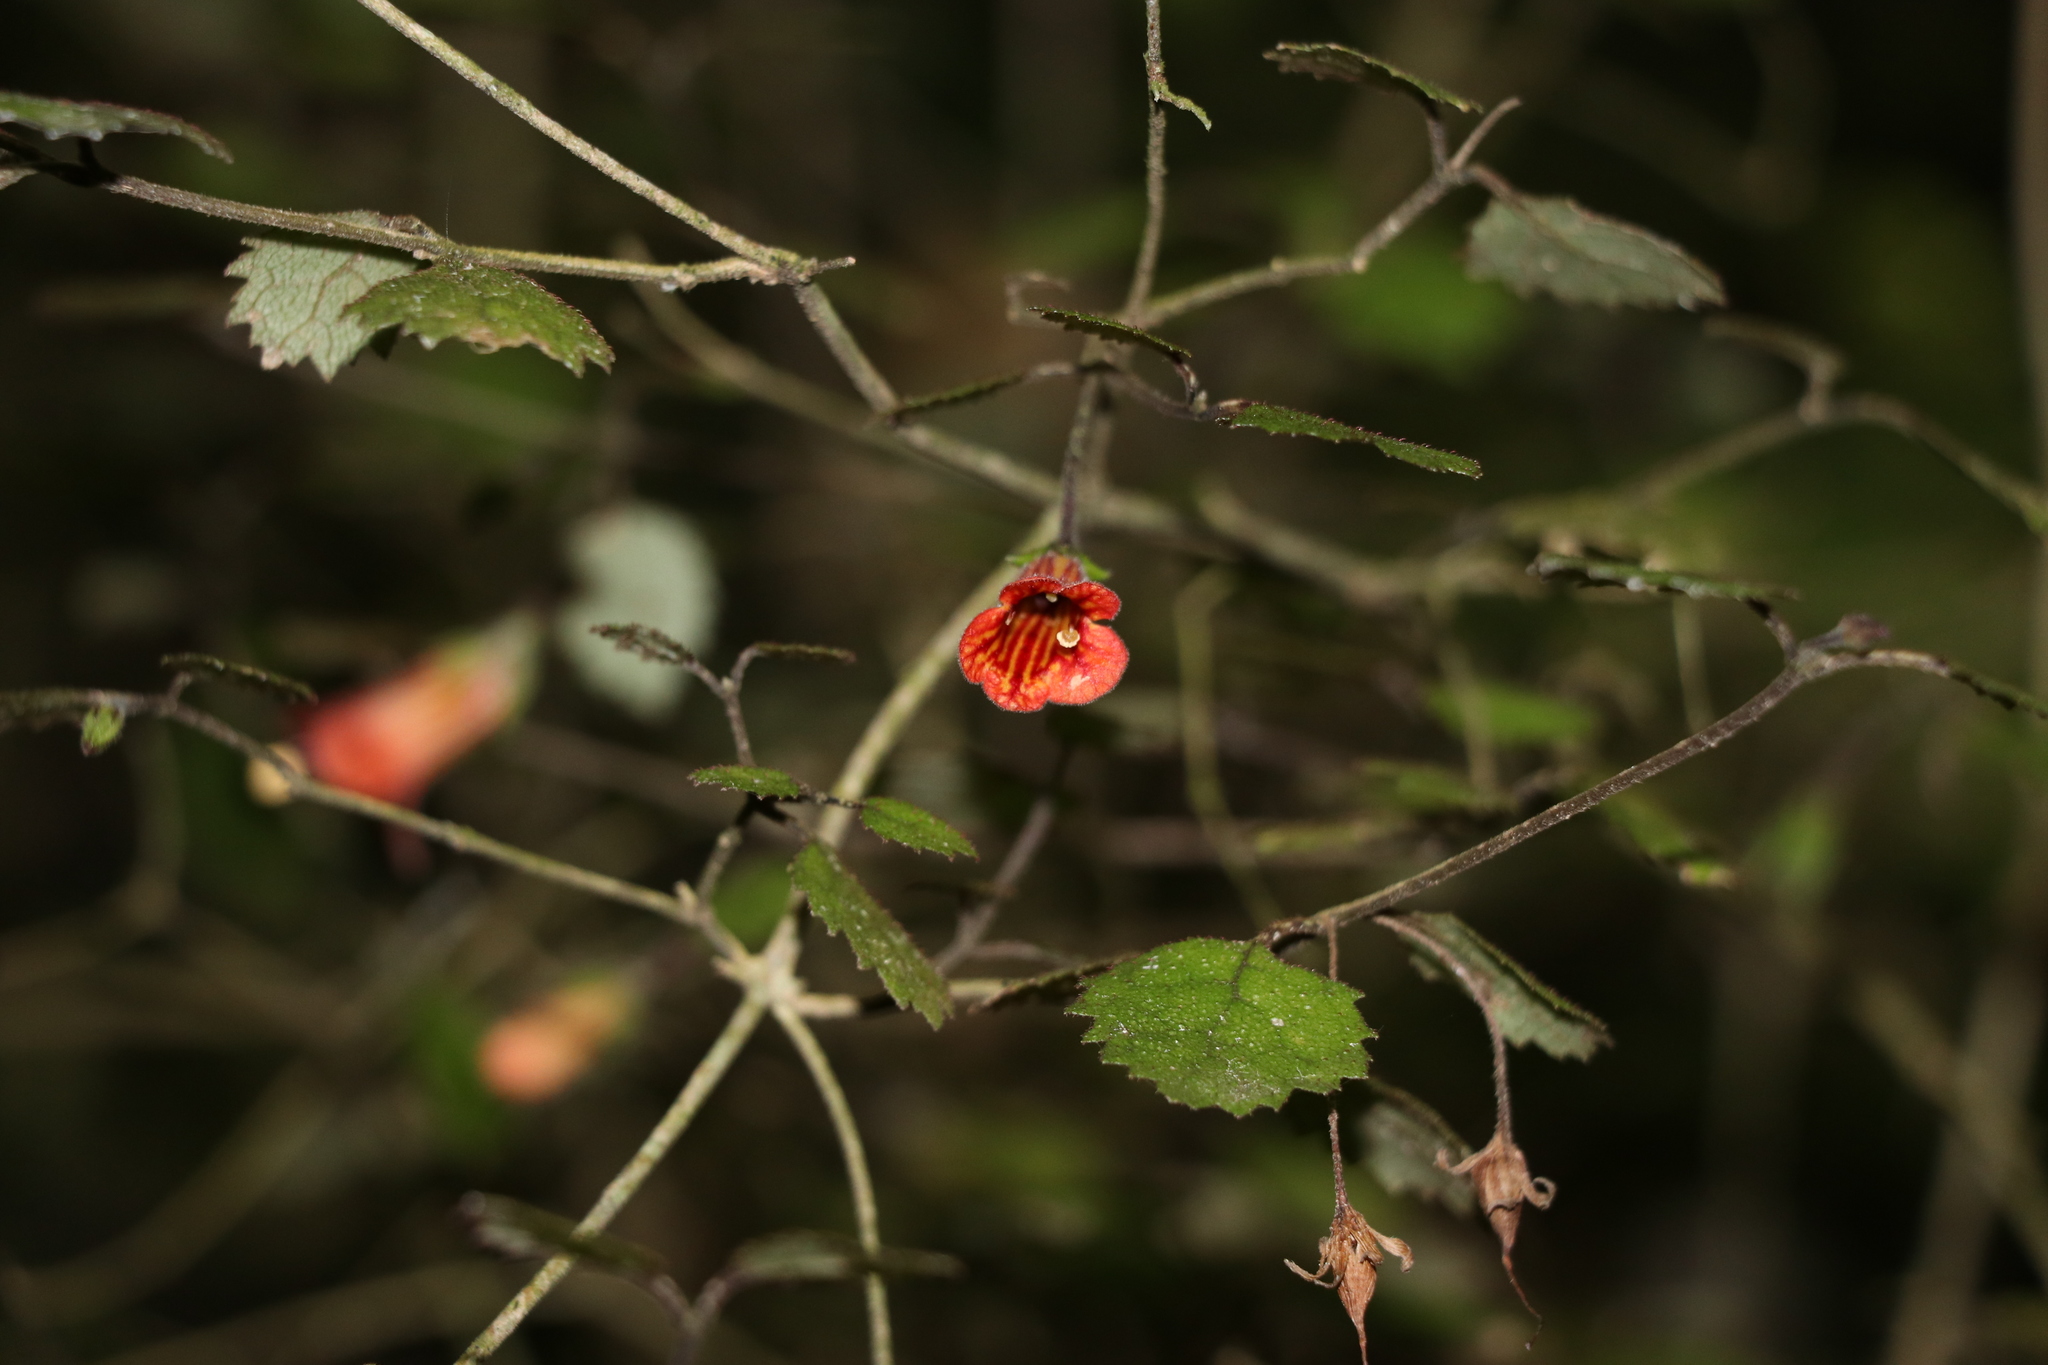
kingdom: Plantae
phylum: Tracheophyta
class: Magnoliopsida
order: Lamiales
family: Gesneriaceae
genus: Rhabdothamnus
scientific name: Rhabdothamnus solandri
